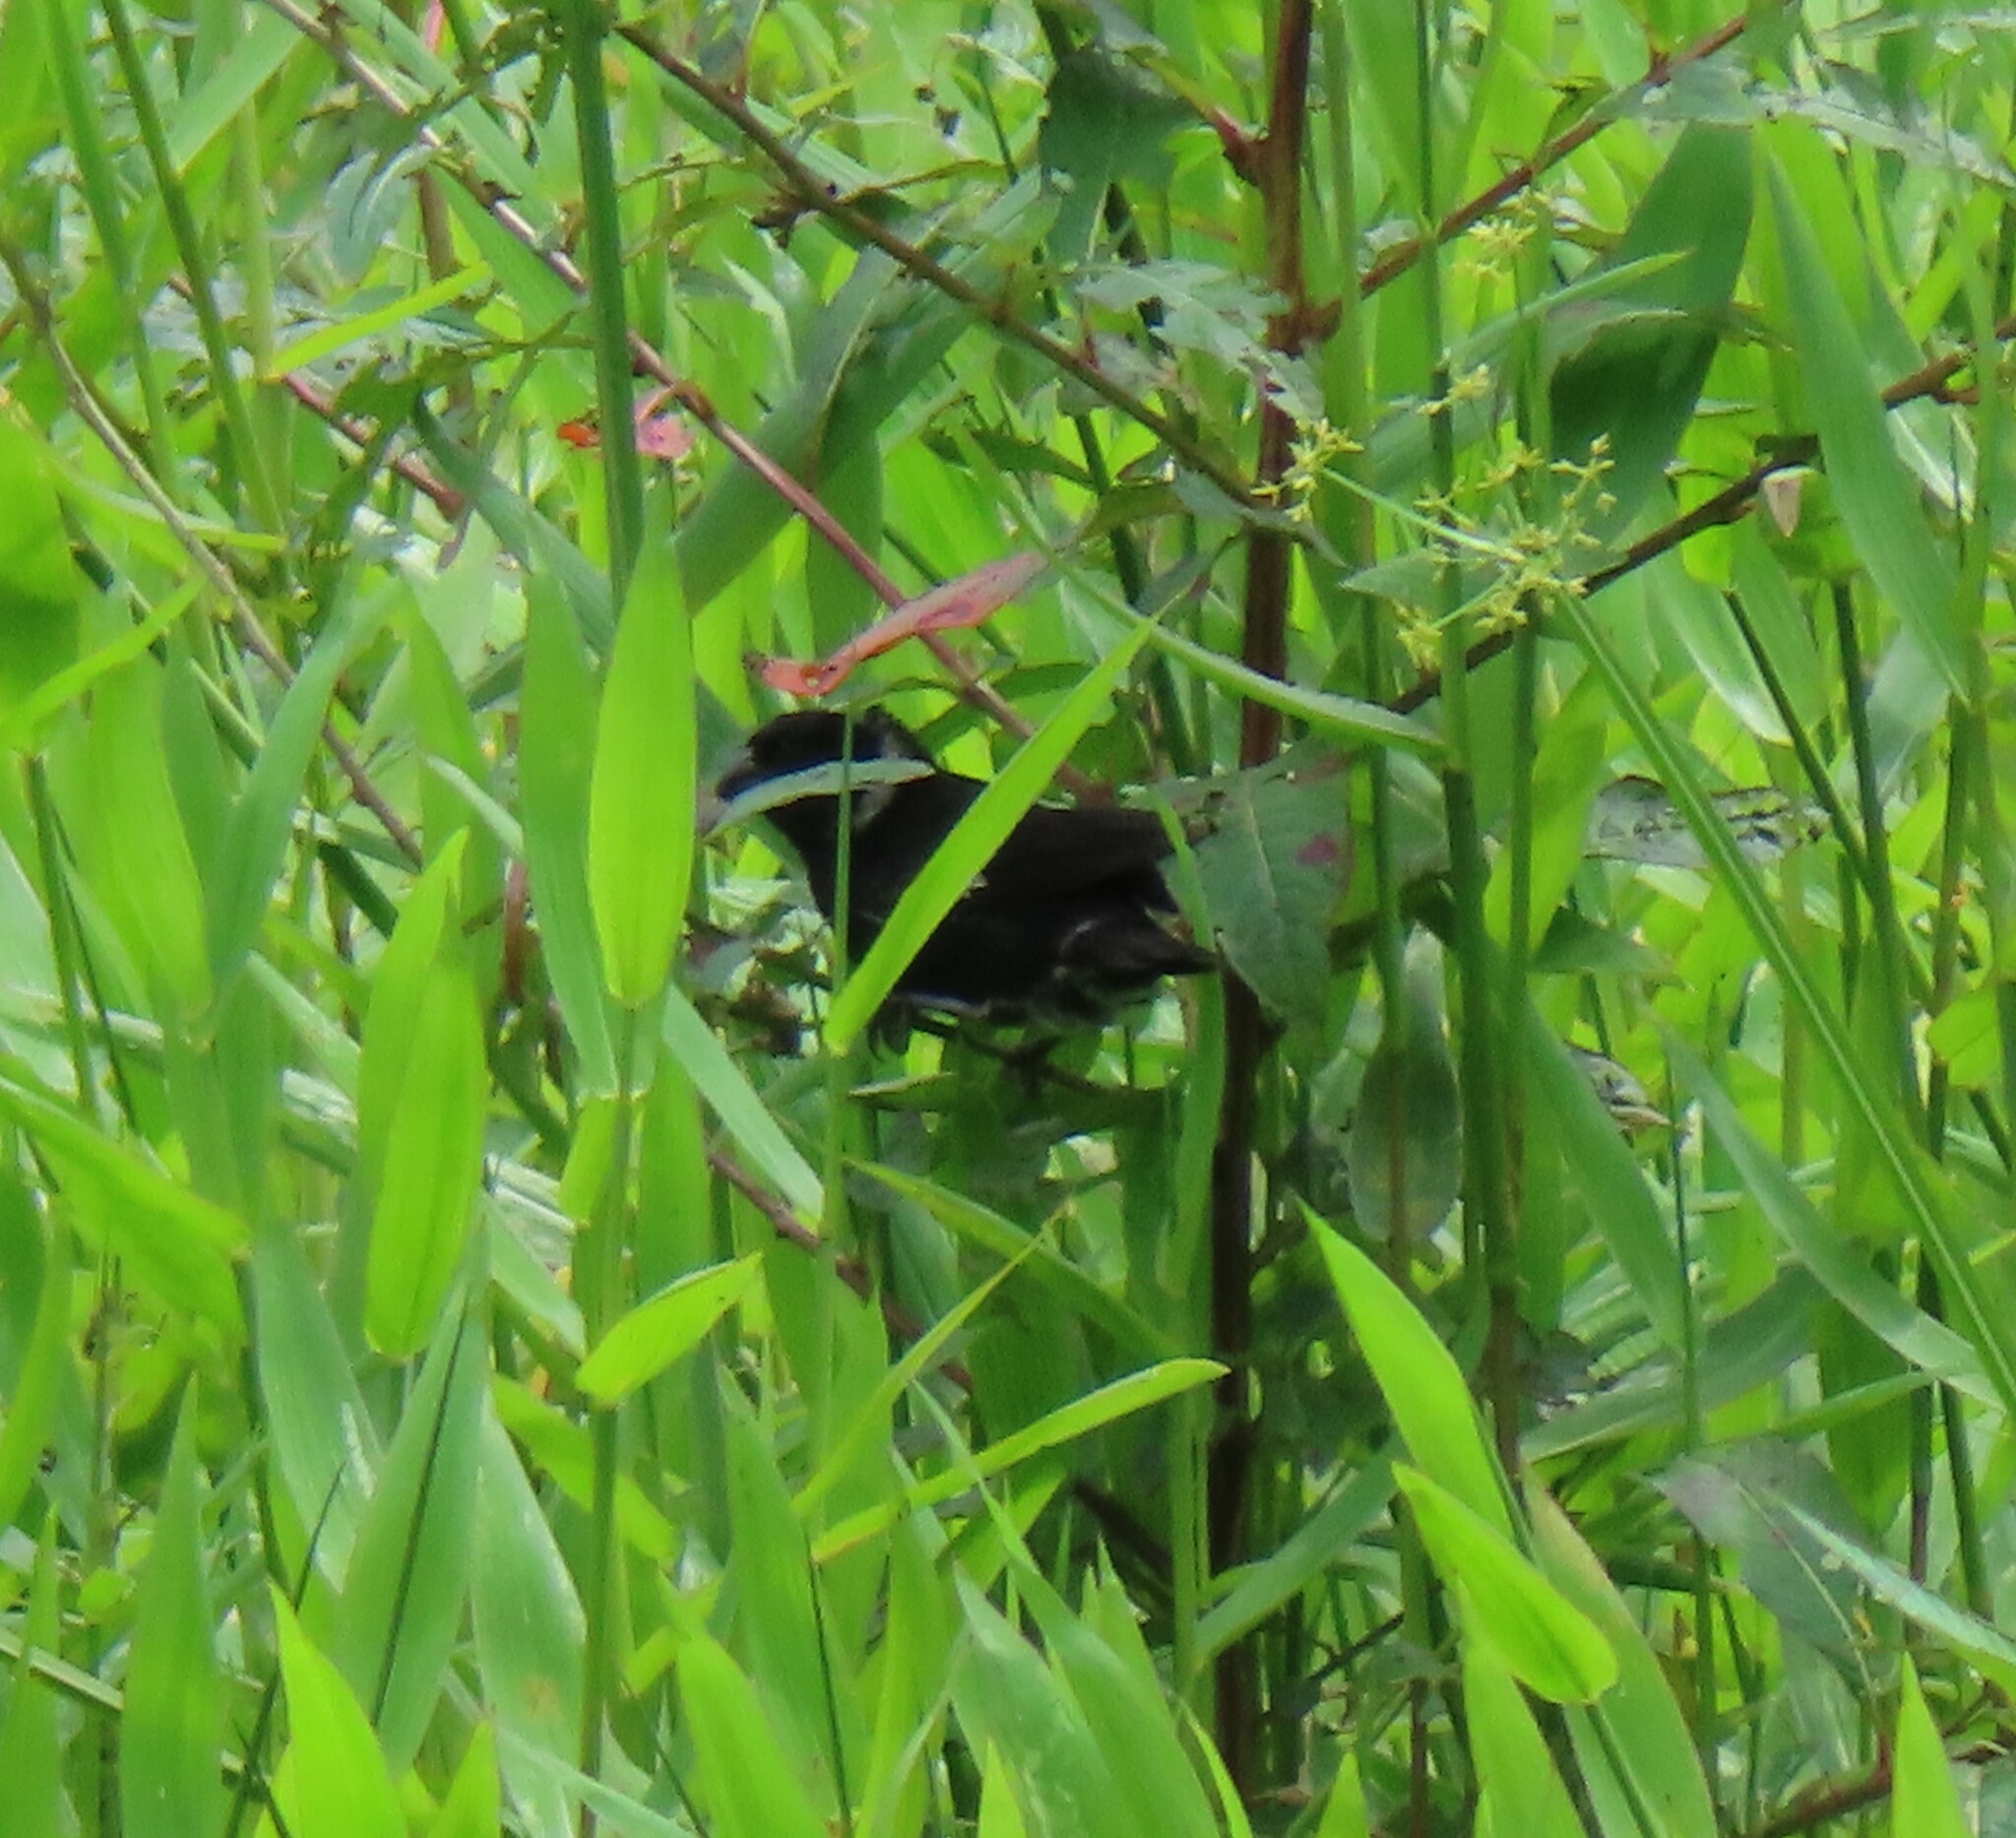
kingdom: Animalia
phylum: Chordata
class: Aves
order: Passeriformes
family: Thraupidae
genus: Sporophila
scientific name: Sporophila corvina
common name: Variable seedeater
